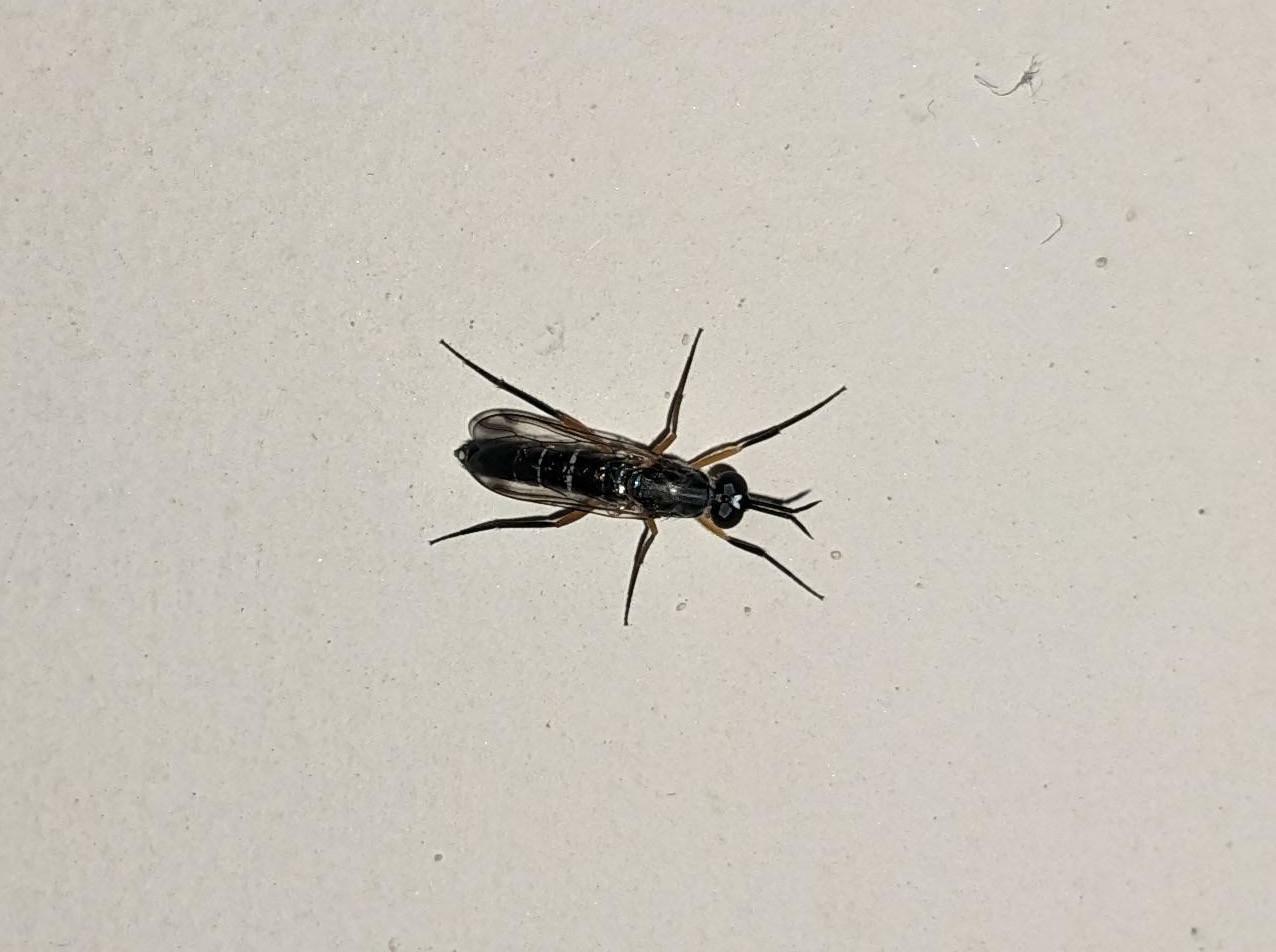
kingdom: Animalia
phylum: Arthropoda
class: Insecta
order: Diptera
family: Therevidae
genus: Phycus
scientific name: Phycus brunneus
